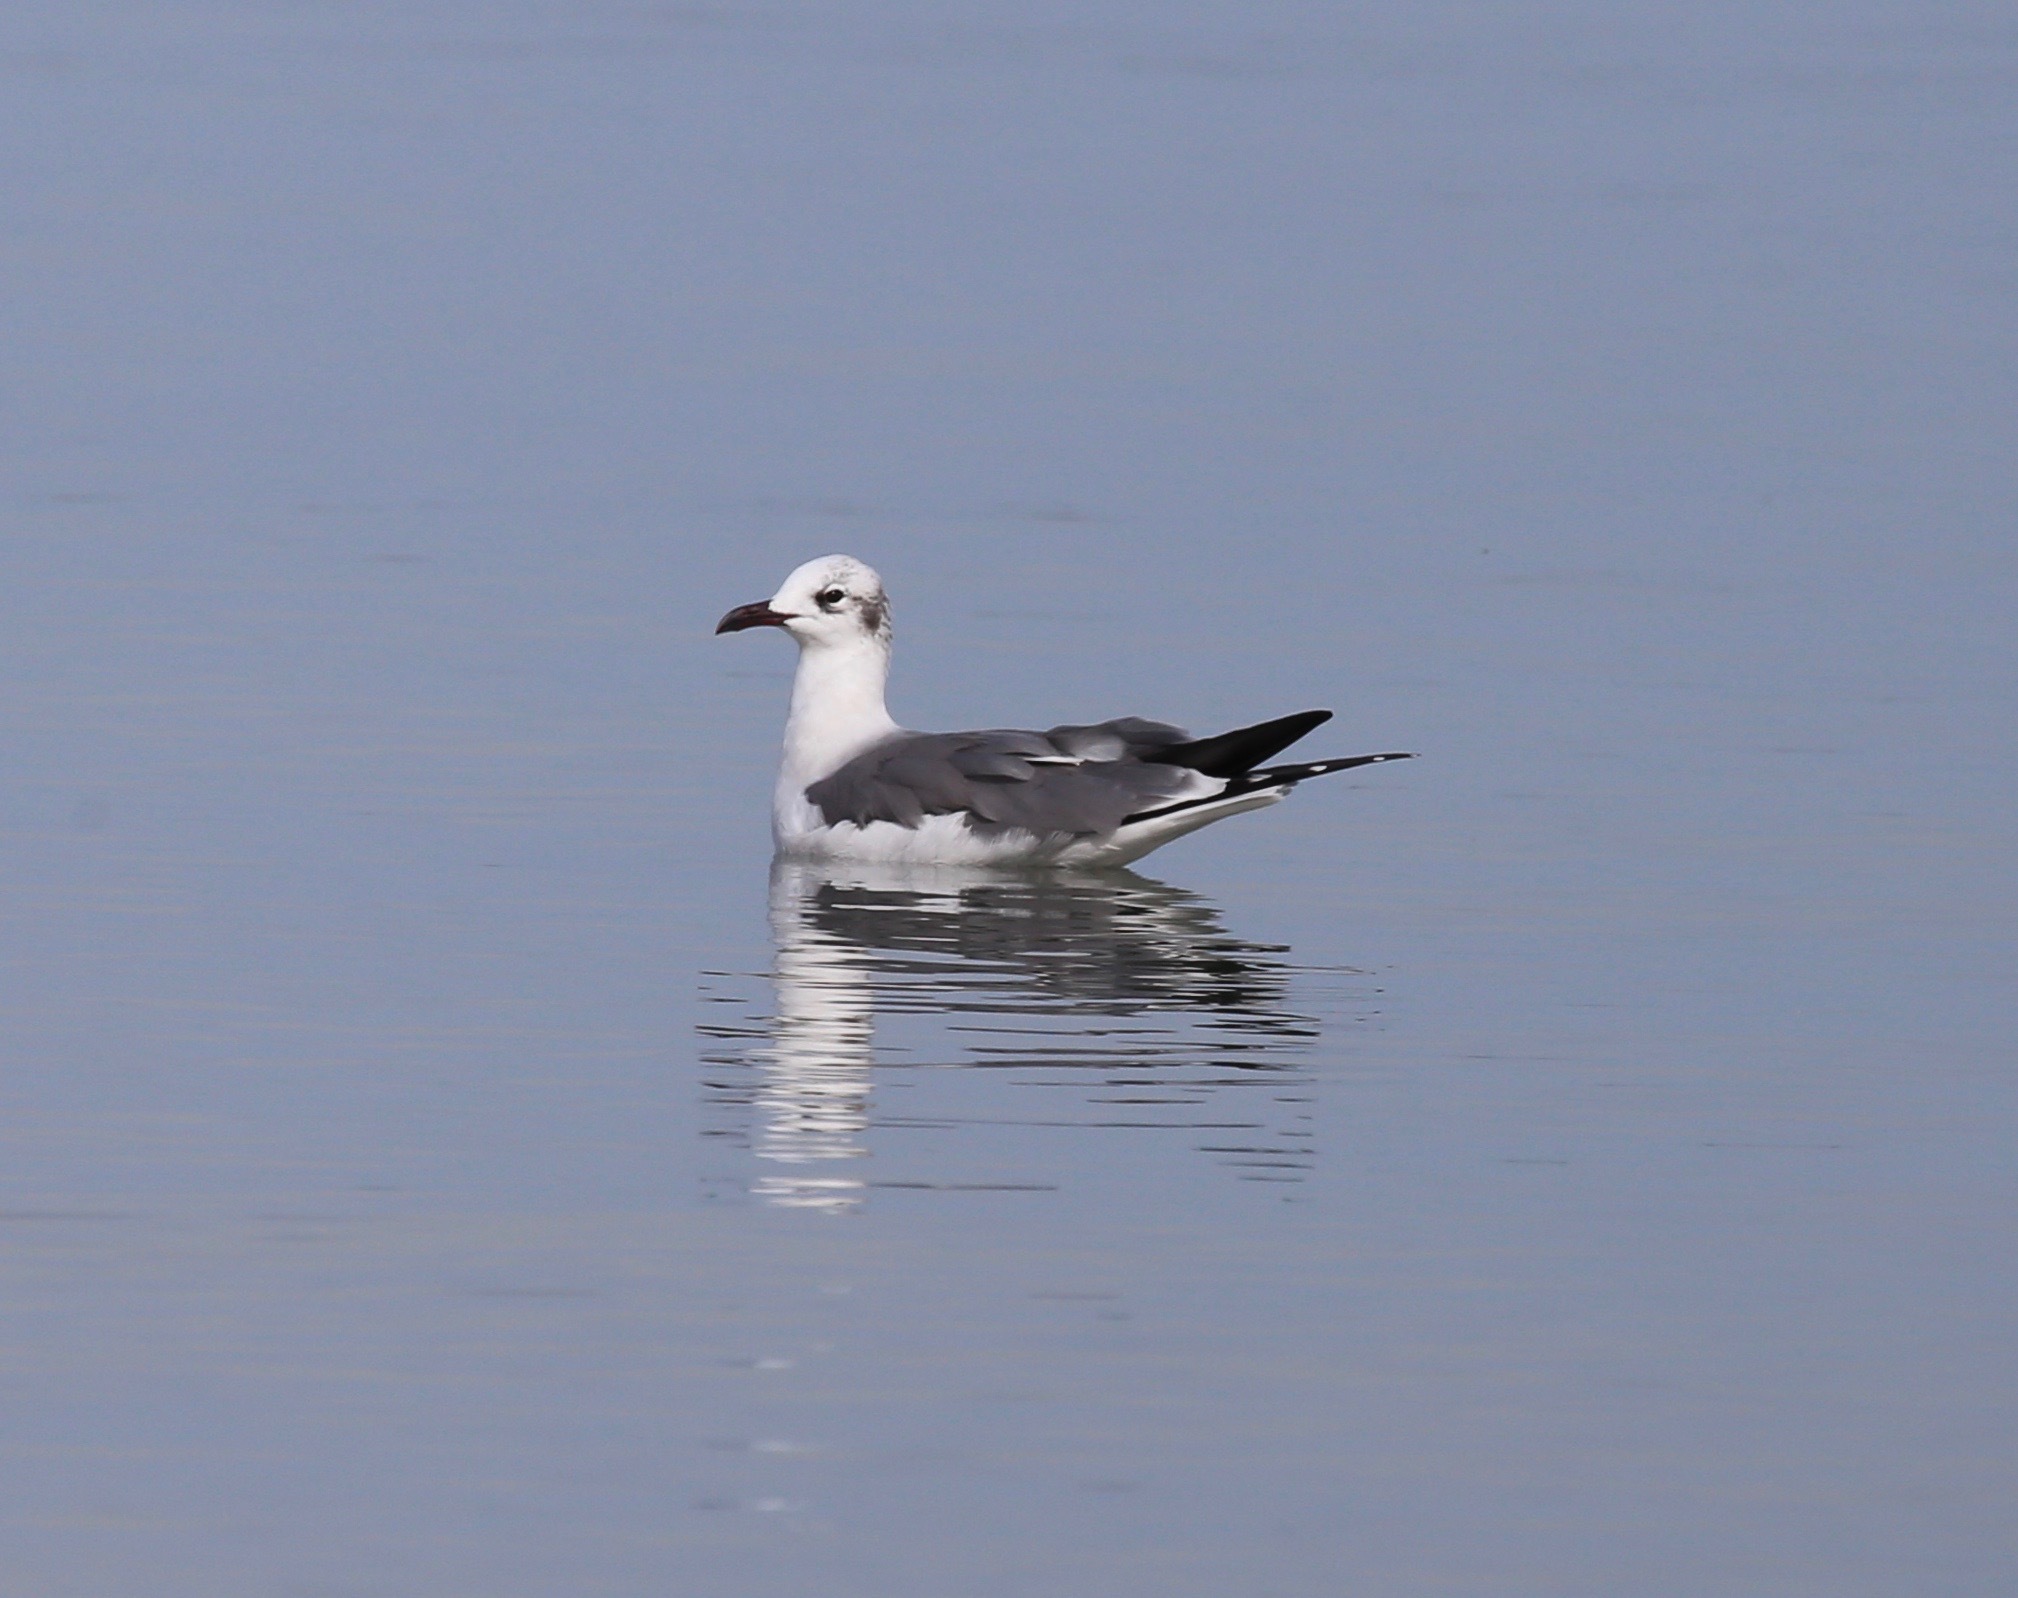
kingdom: Animalia
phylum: Chordata
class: Aves
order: Charadriiformes
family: Laridae
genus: Leucophaeus
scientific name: Leucophaeus atricilla
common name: Laughing gull
